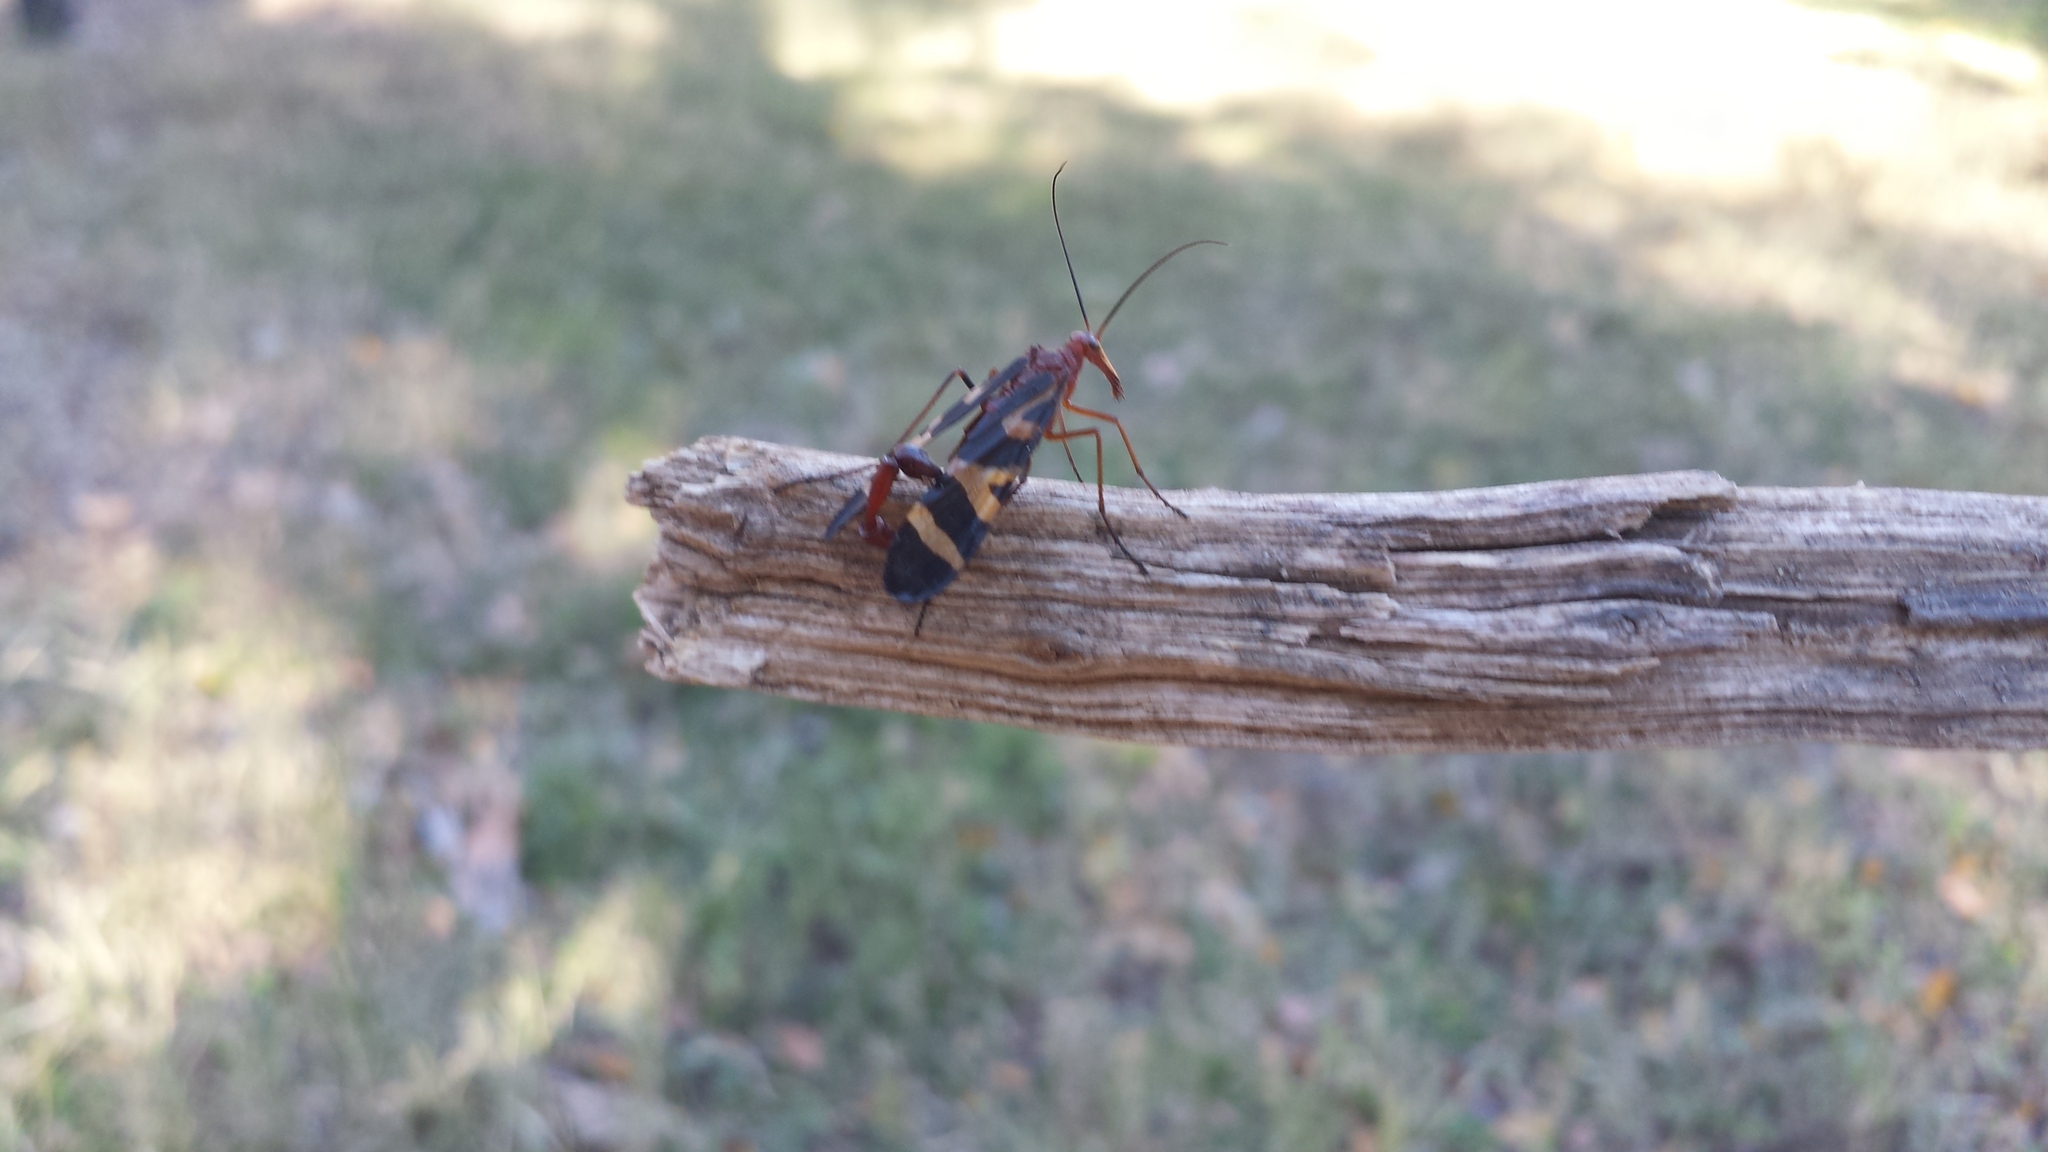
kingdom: Animalia
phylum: Arthropoda
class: Insecta
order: Mecoptera
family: Panorpidae
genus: Panorpa
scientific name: Panorpa nuptialis
